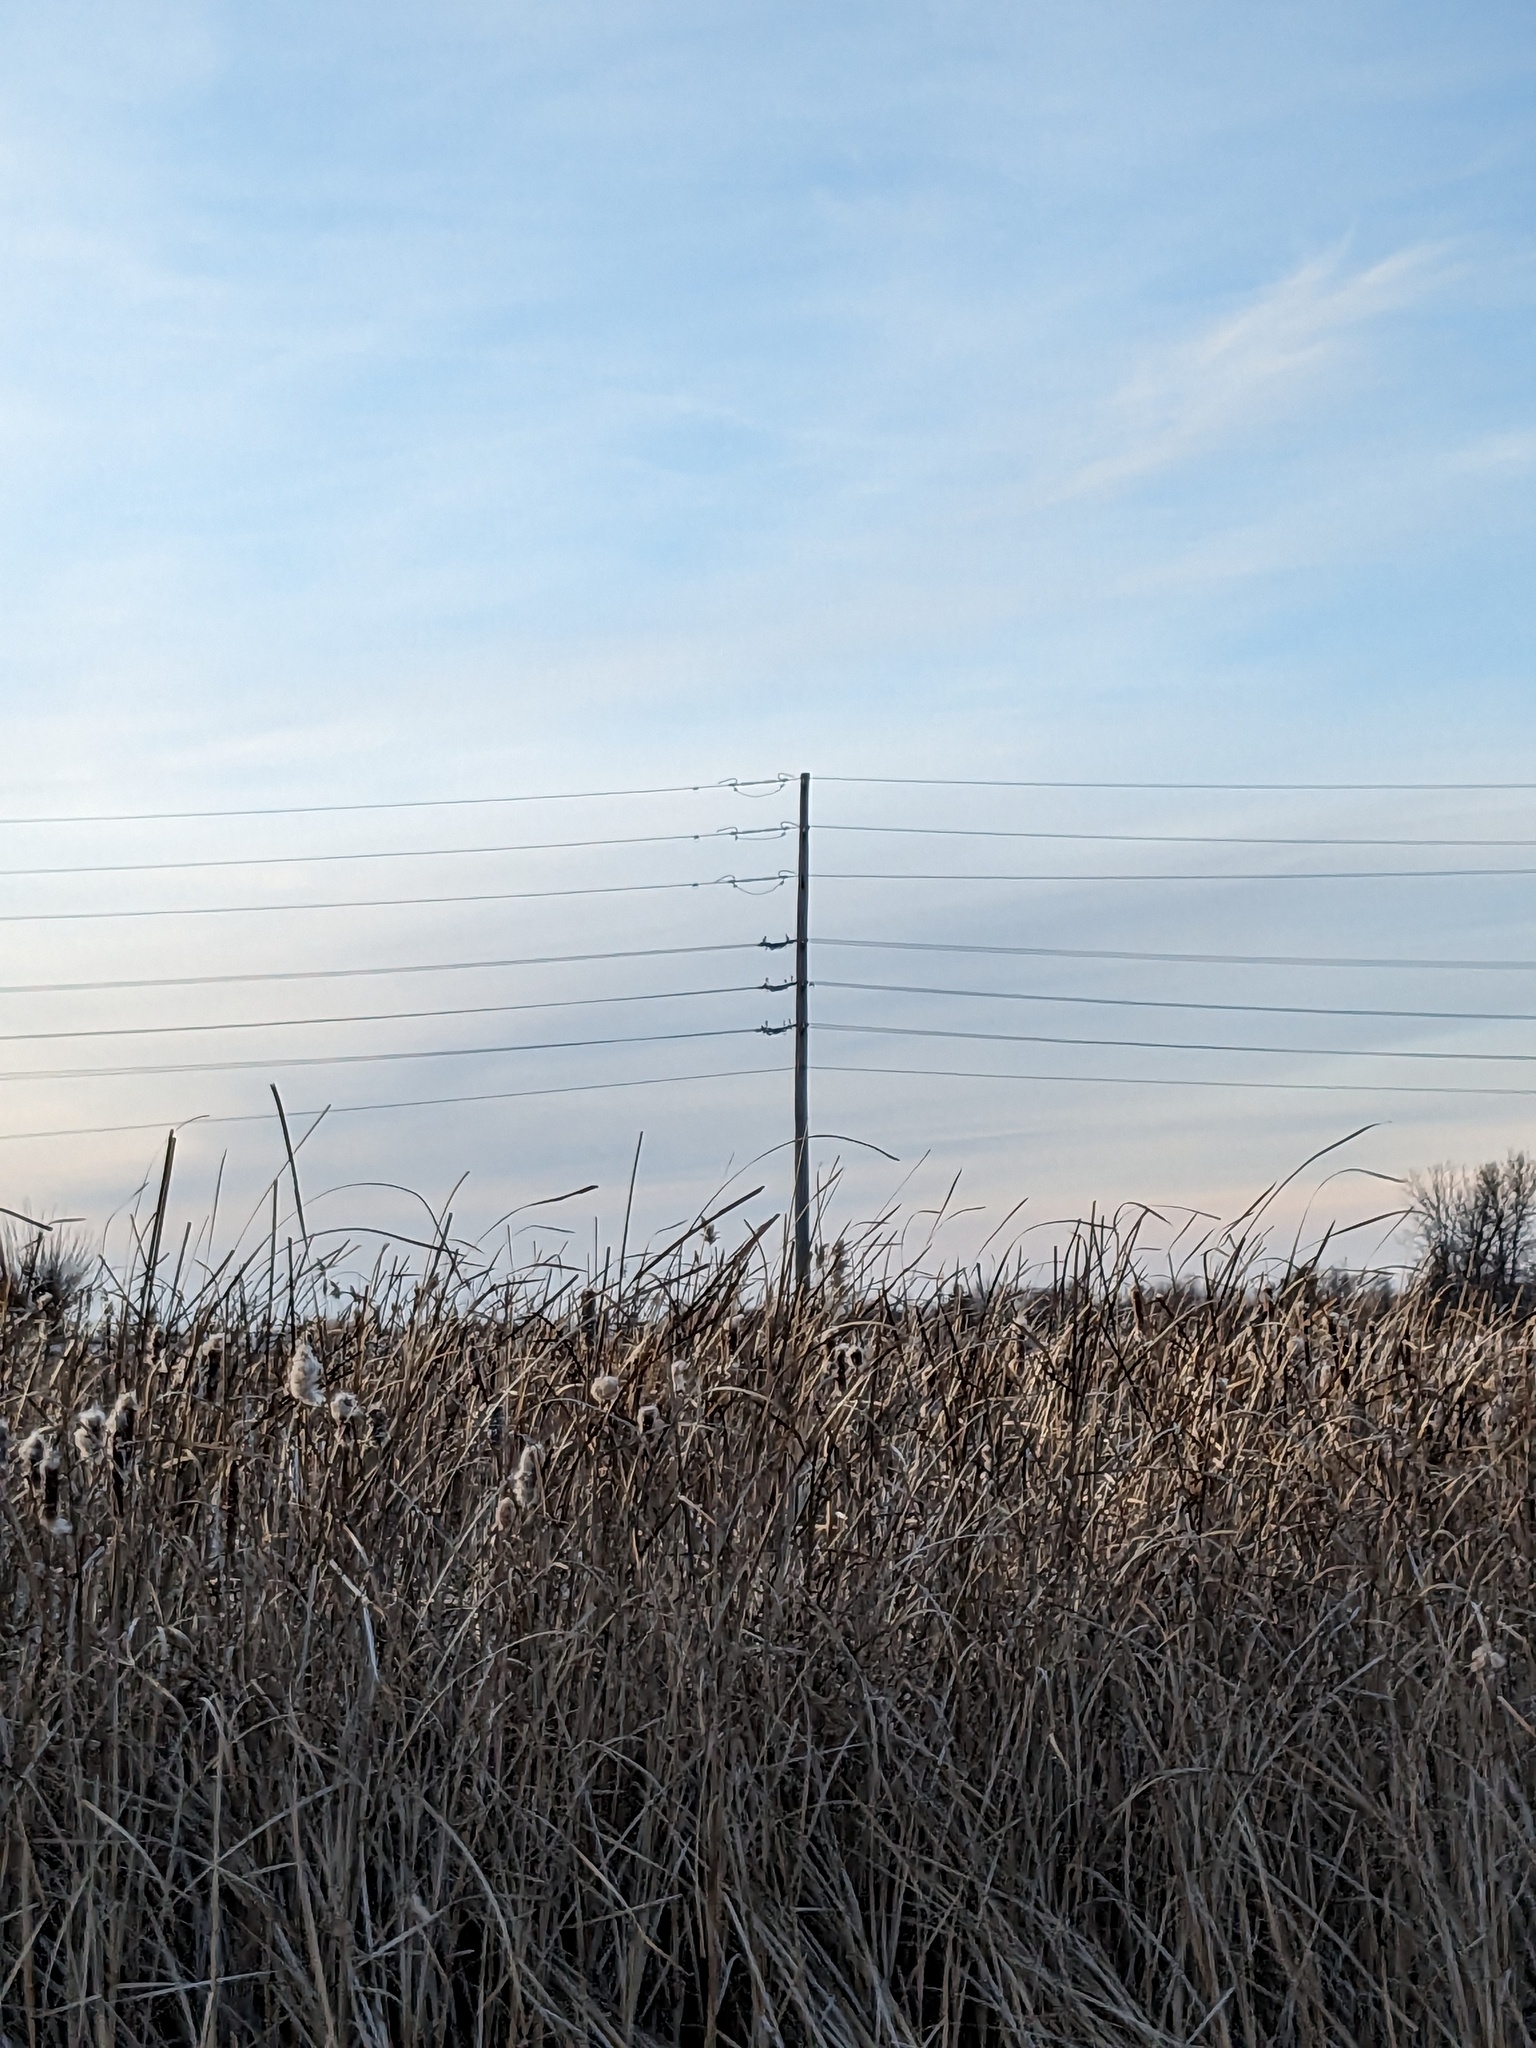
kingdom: Plantae
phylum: Tracheophyta
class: Liliopsida
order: Poales
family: Poaceae
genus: Phragmites
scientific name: Phragmites australis
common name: Common reed
